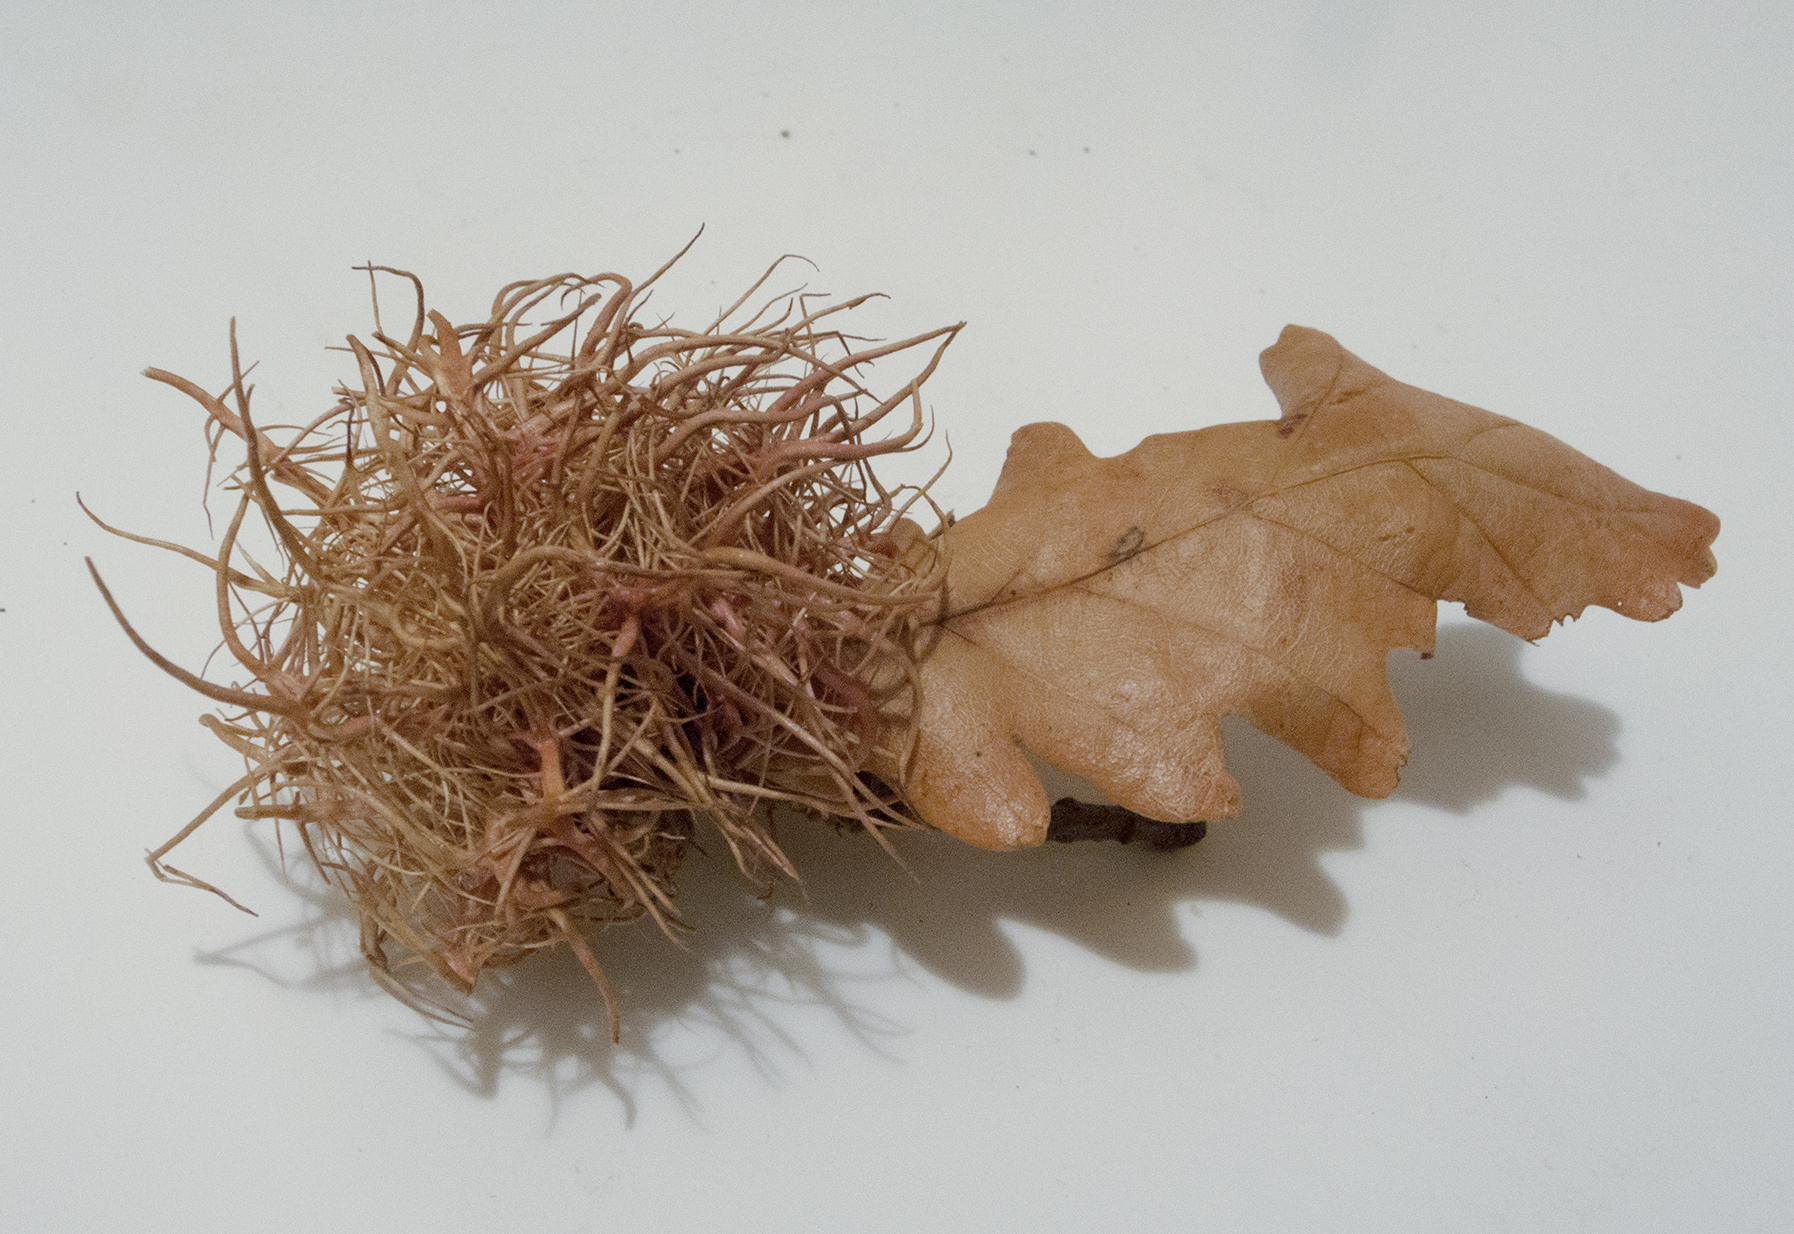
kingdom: Animalia
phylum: Arthropoda
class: Insecta
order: Hymenoptera
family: Cynipidae
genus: Andricus
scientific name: Andricus caputmedusae
